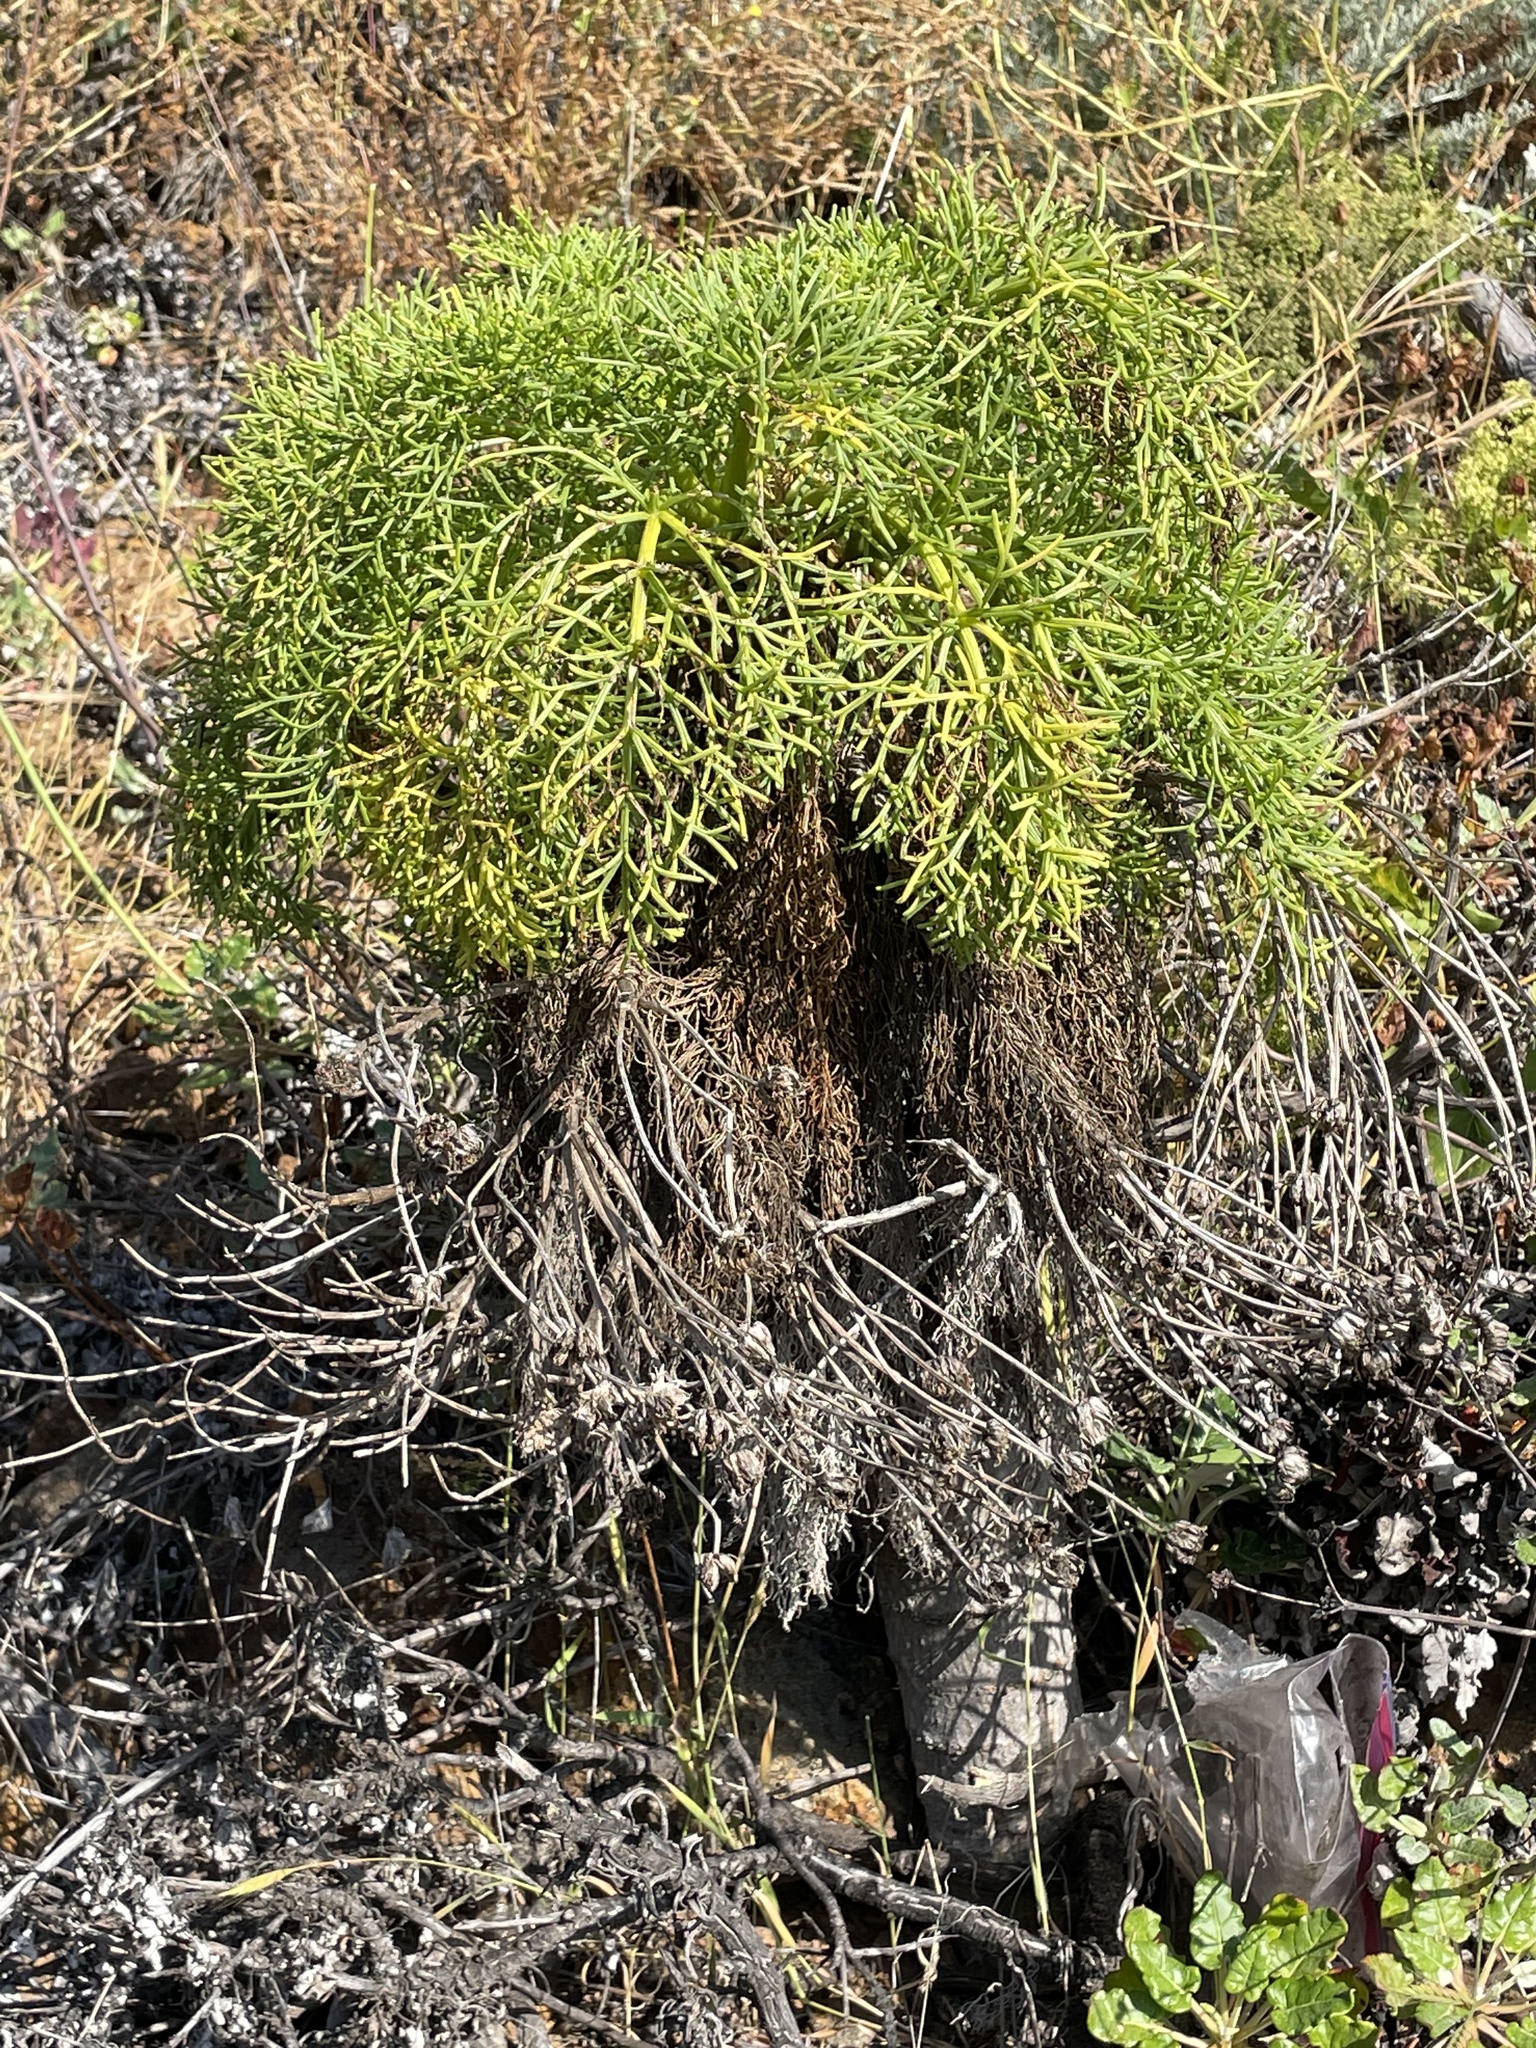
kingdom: Plantae
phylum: Tracheophyta
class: Magnoliopsida
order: Asterales
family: Asteraceae
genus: Coreopsis
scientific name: Coreopsis gigantea
